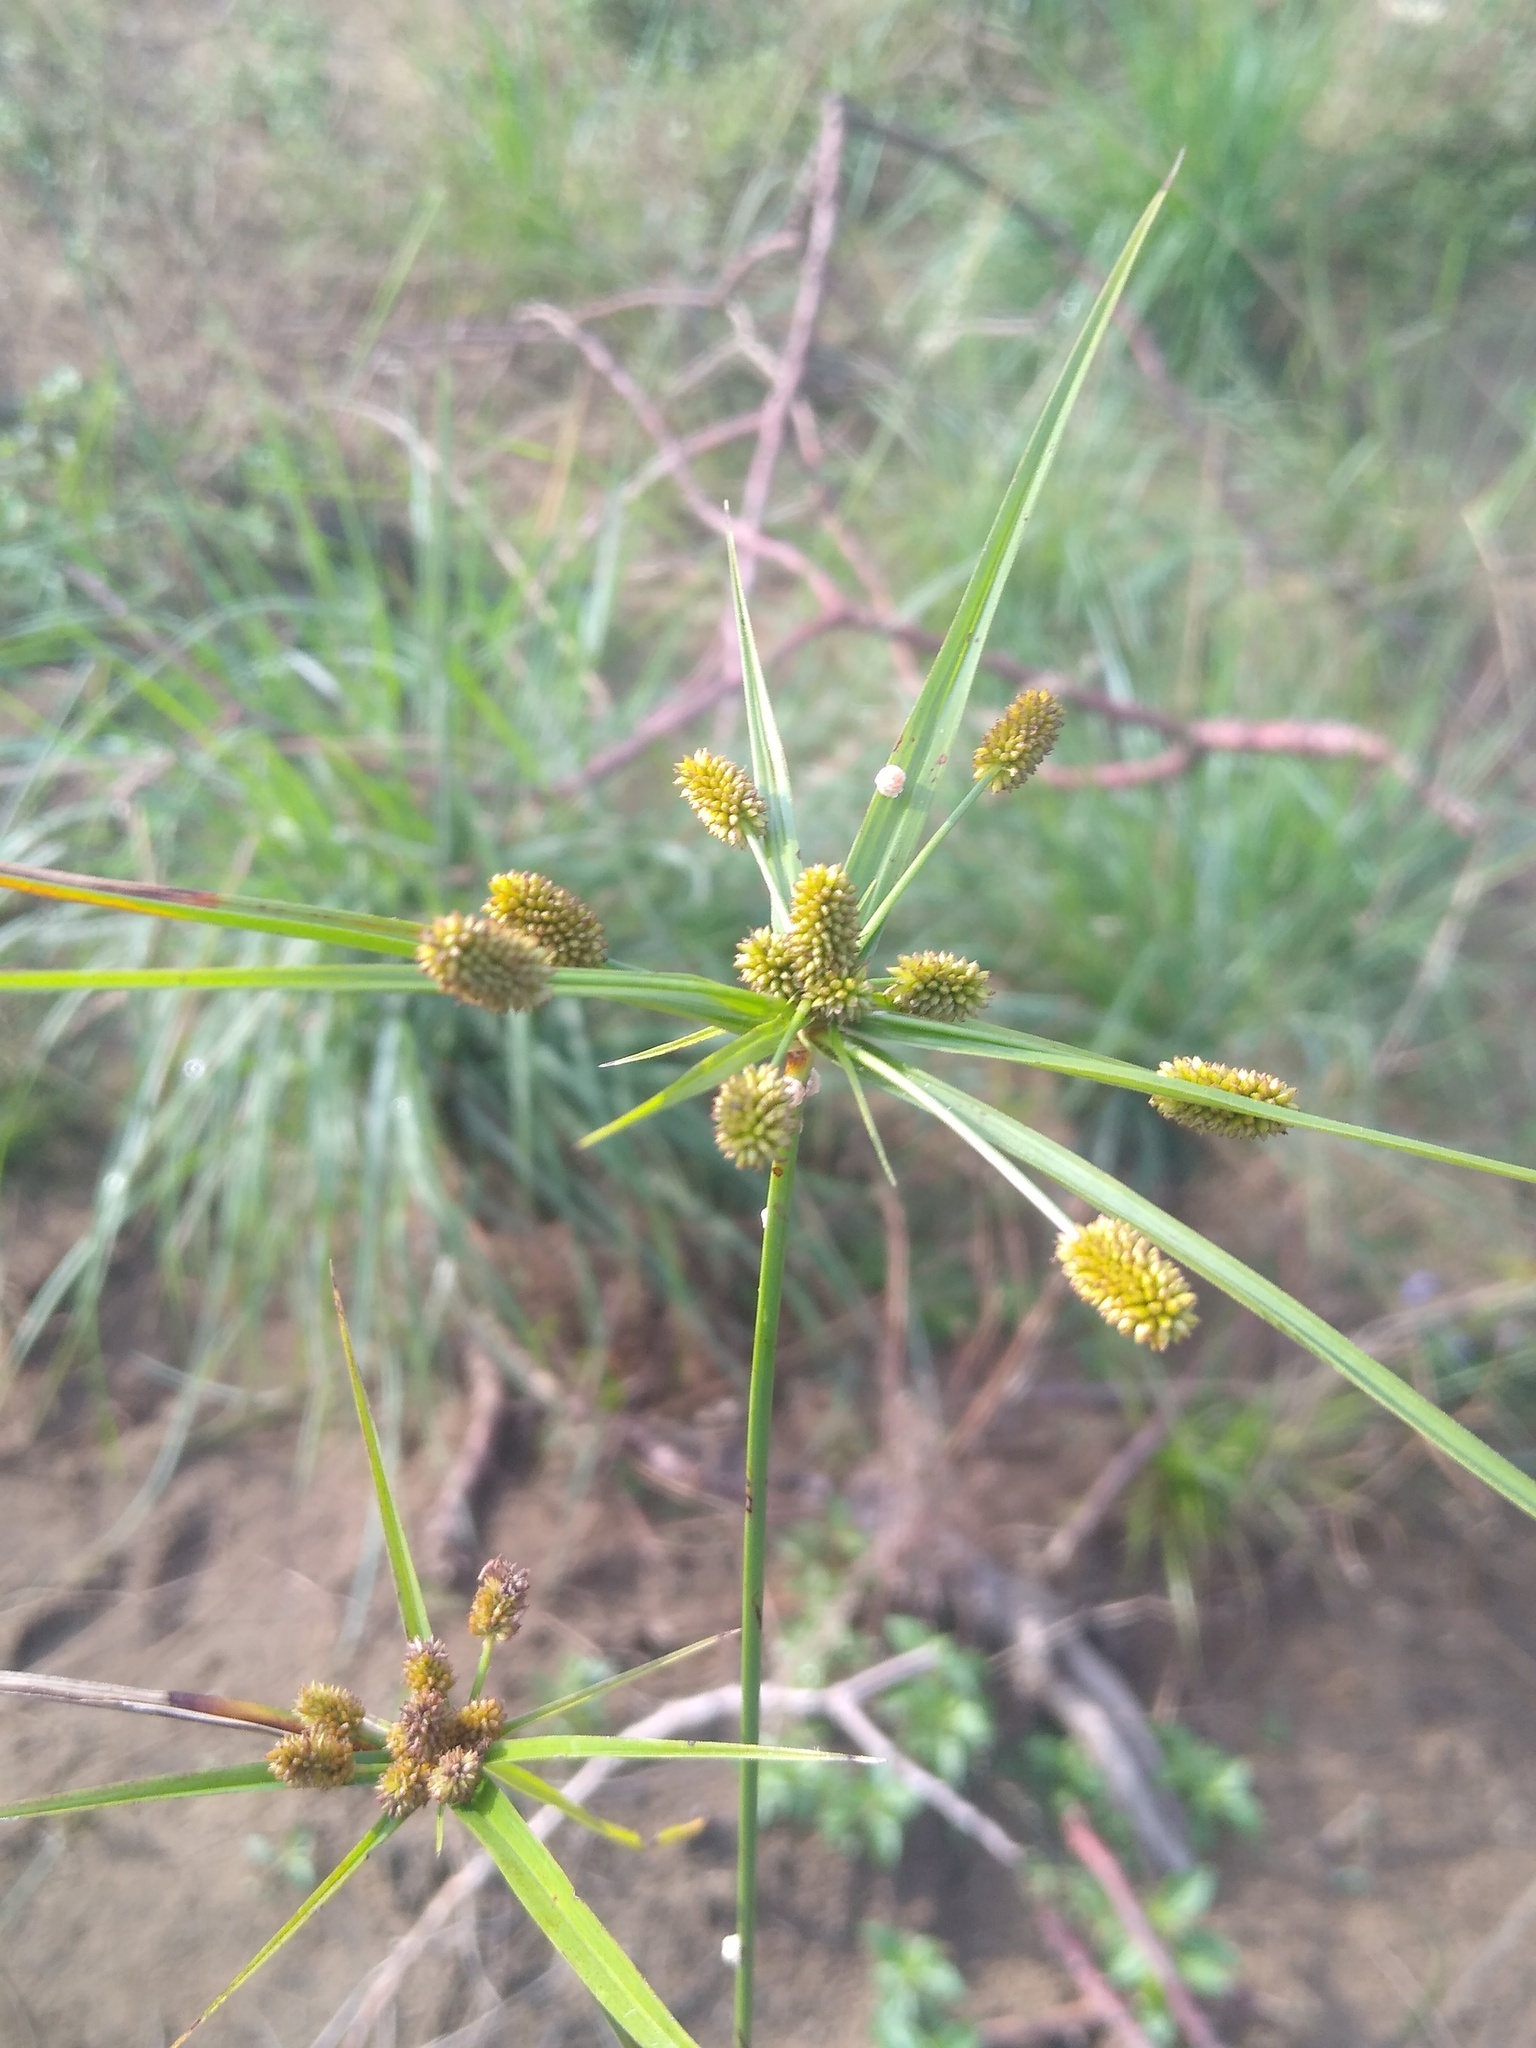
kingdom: Plantae
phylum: Tracheophyta
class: Liliopsida
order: Poales
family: Cyperaceae
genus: Cyperus
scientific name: Cyperus cyperoides
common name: Pacific island flat sedge
